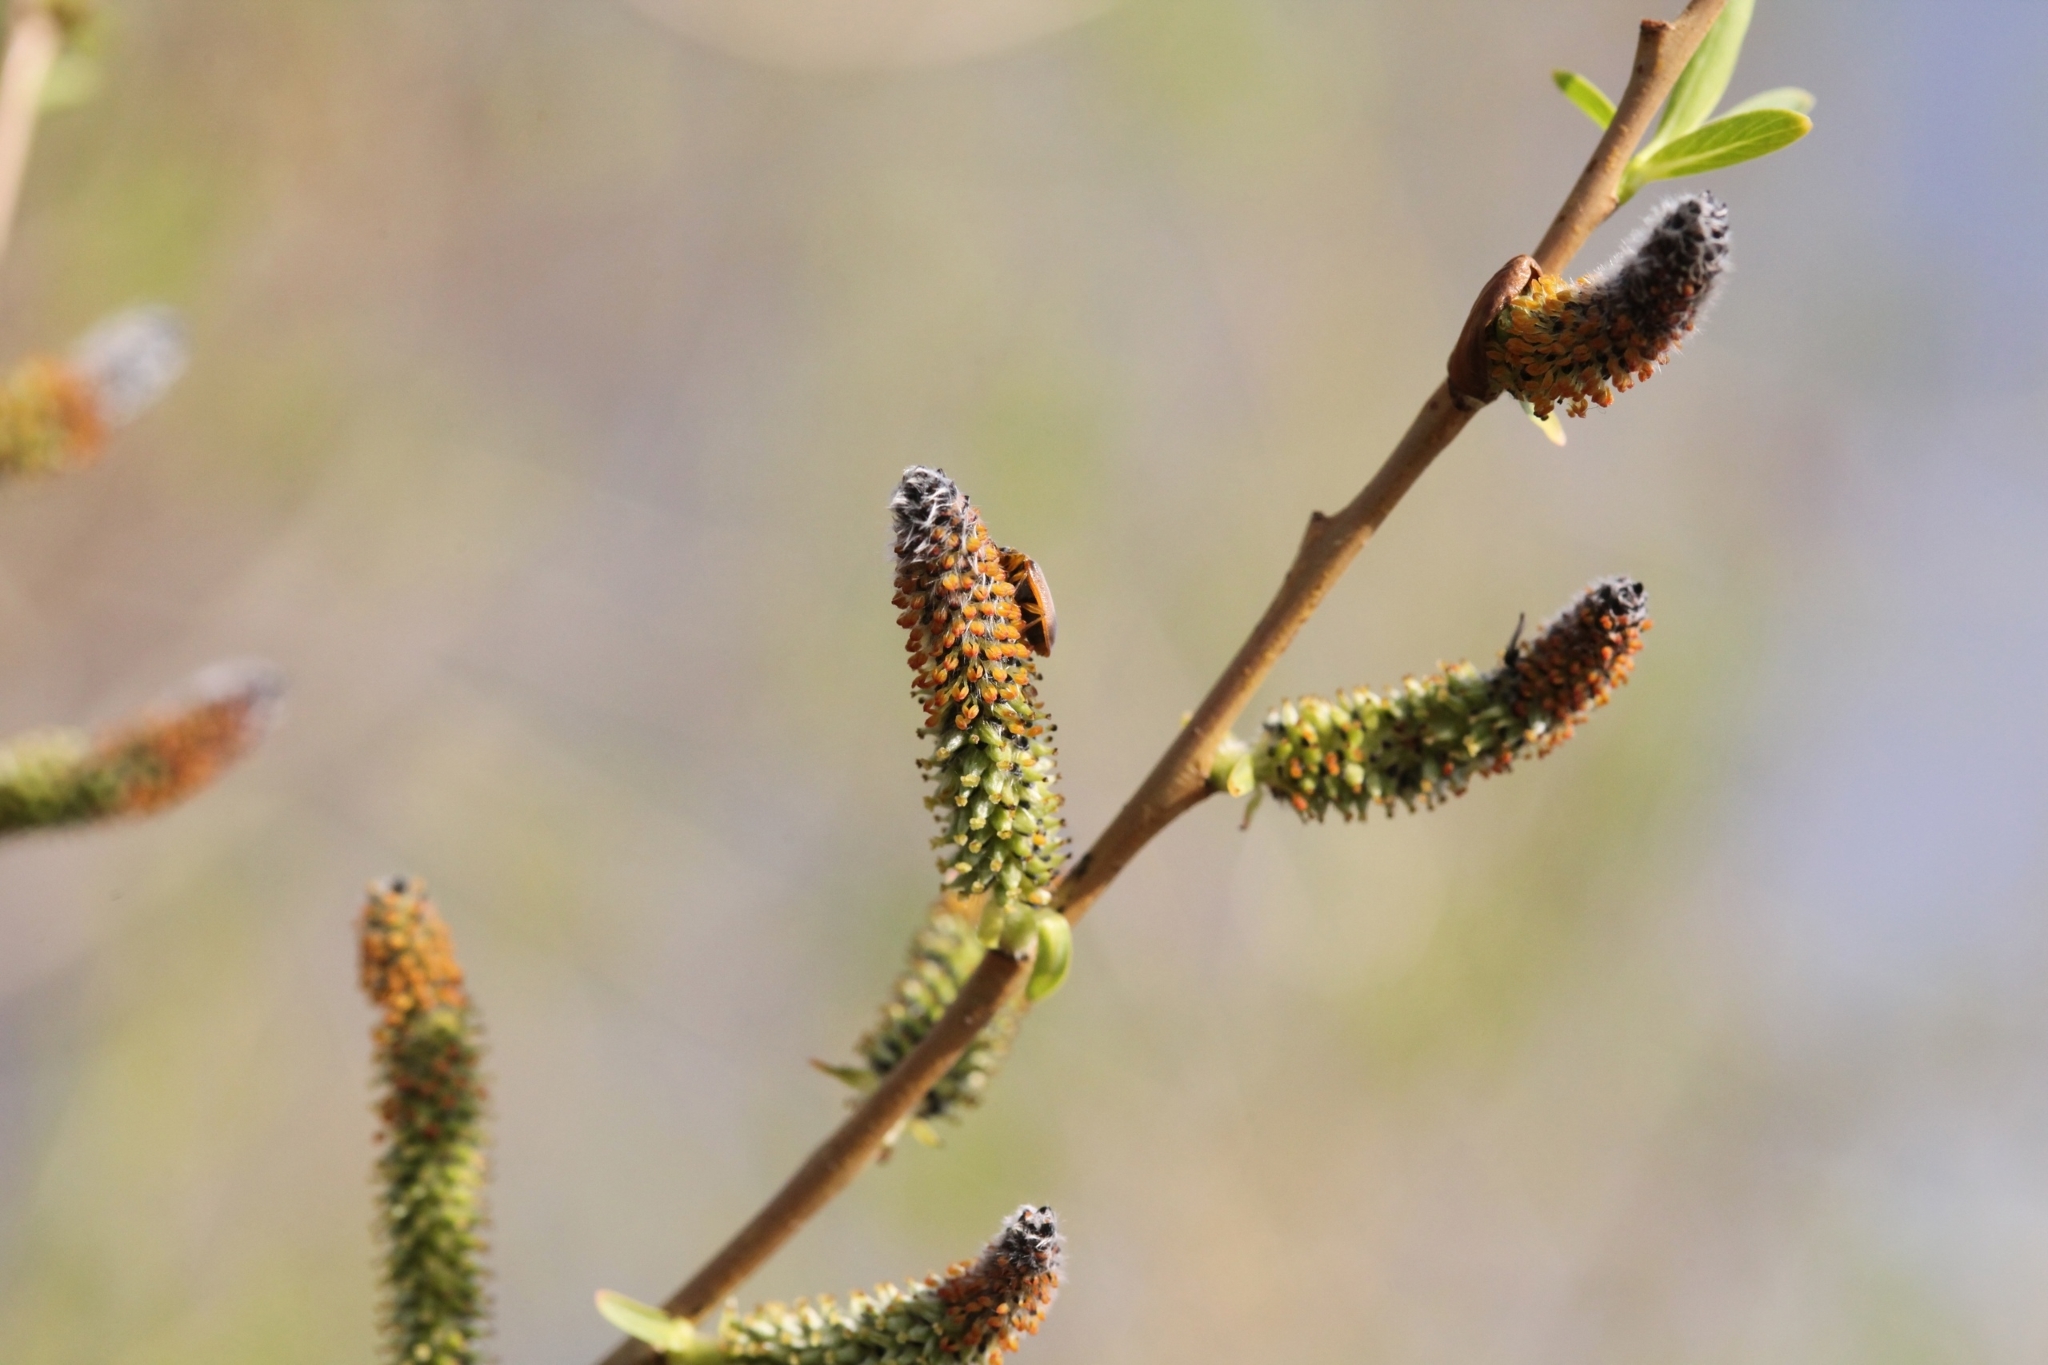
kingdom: Plantae
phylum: Tracheophyta
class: Magnoliopsida
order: Malpighiales
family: Salicaceae
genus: Salix
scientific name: Salix cinerea
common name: Common sallow
